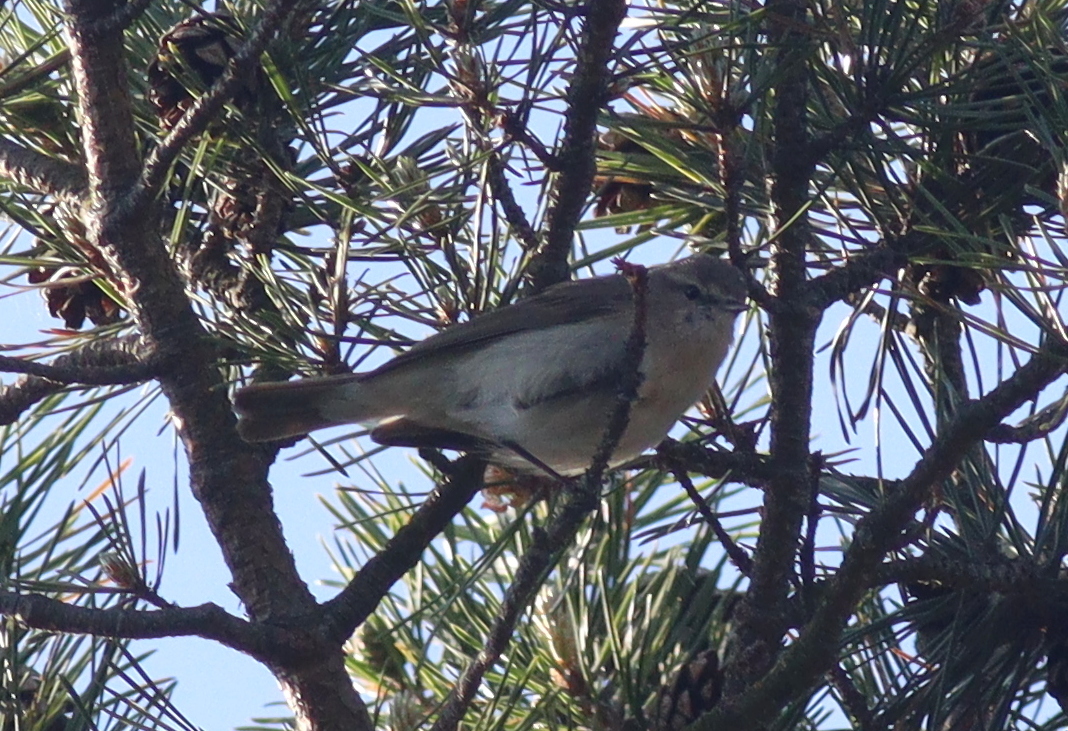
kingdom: Animalia
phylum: Chordata
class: Aves
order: Passeriformes
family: Phylloscopidae
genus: Phylloscopus
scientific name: Phylloscopus collybita
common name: Common chiffchaff
